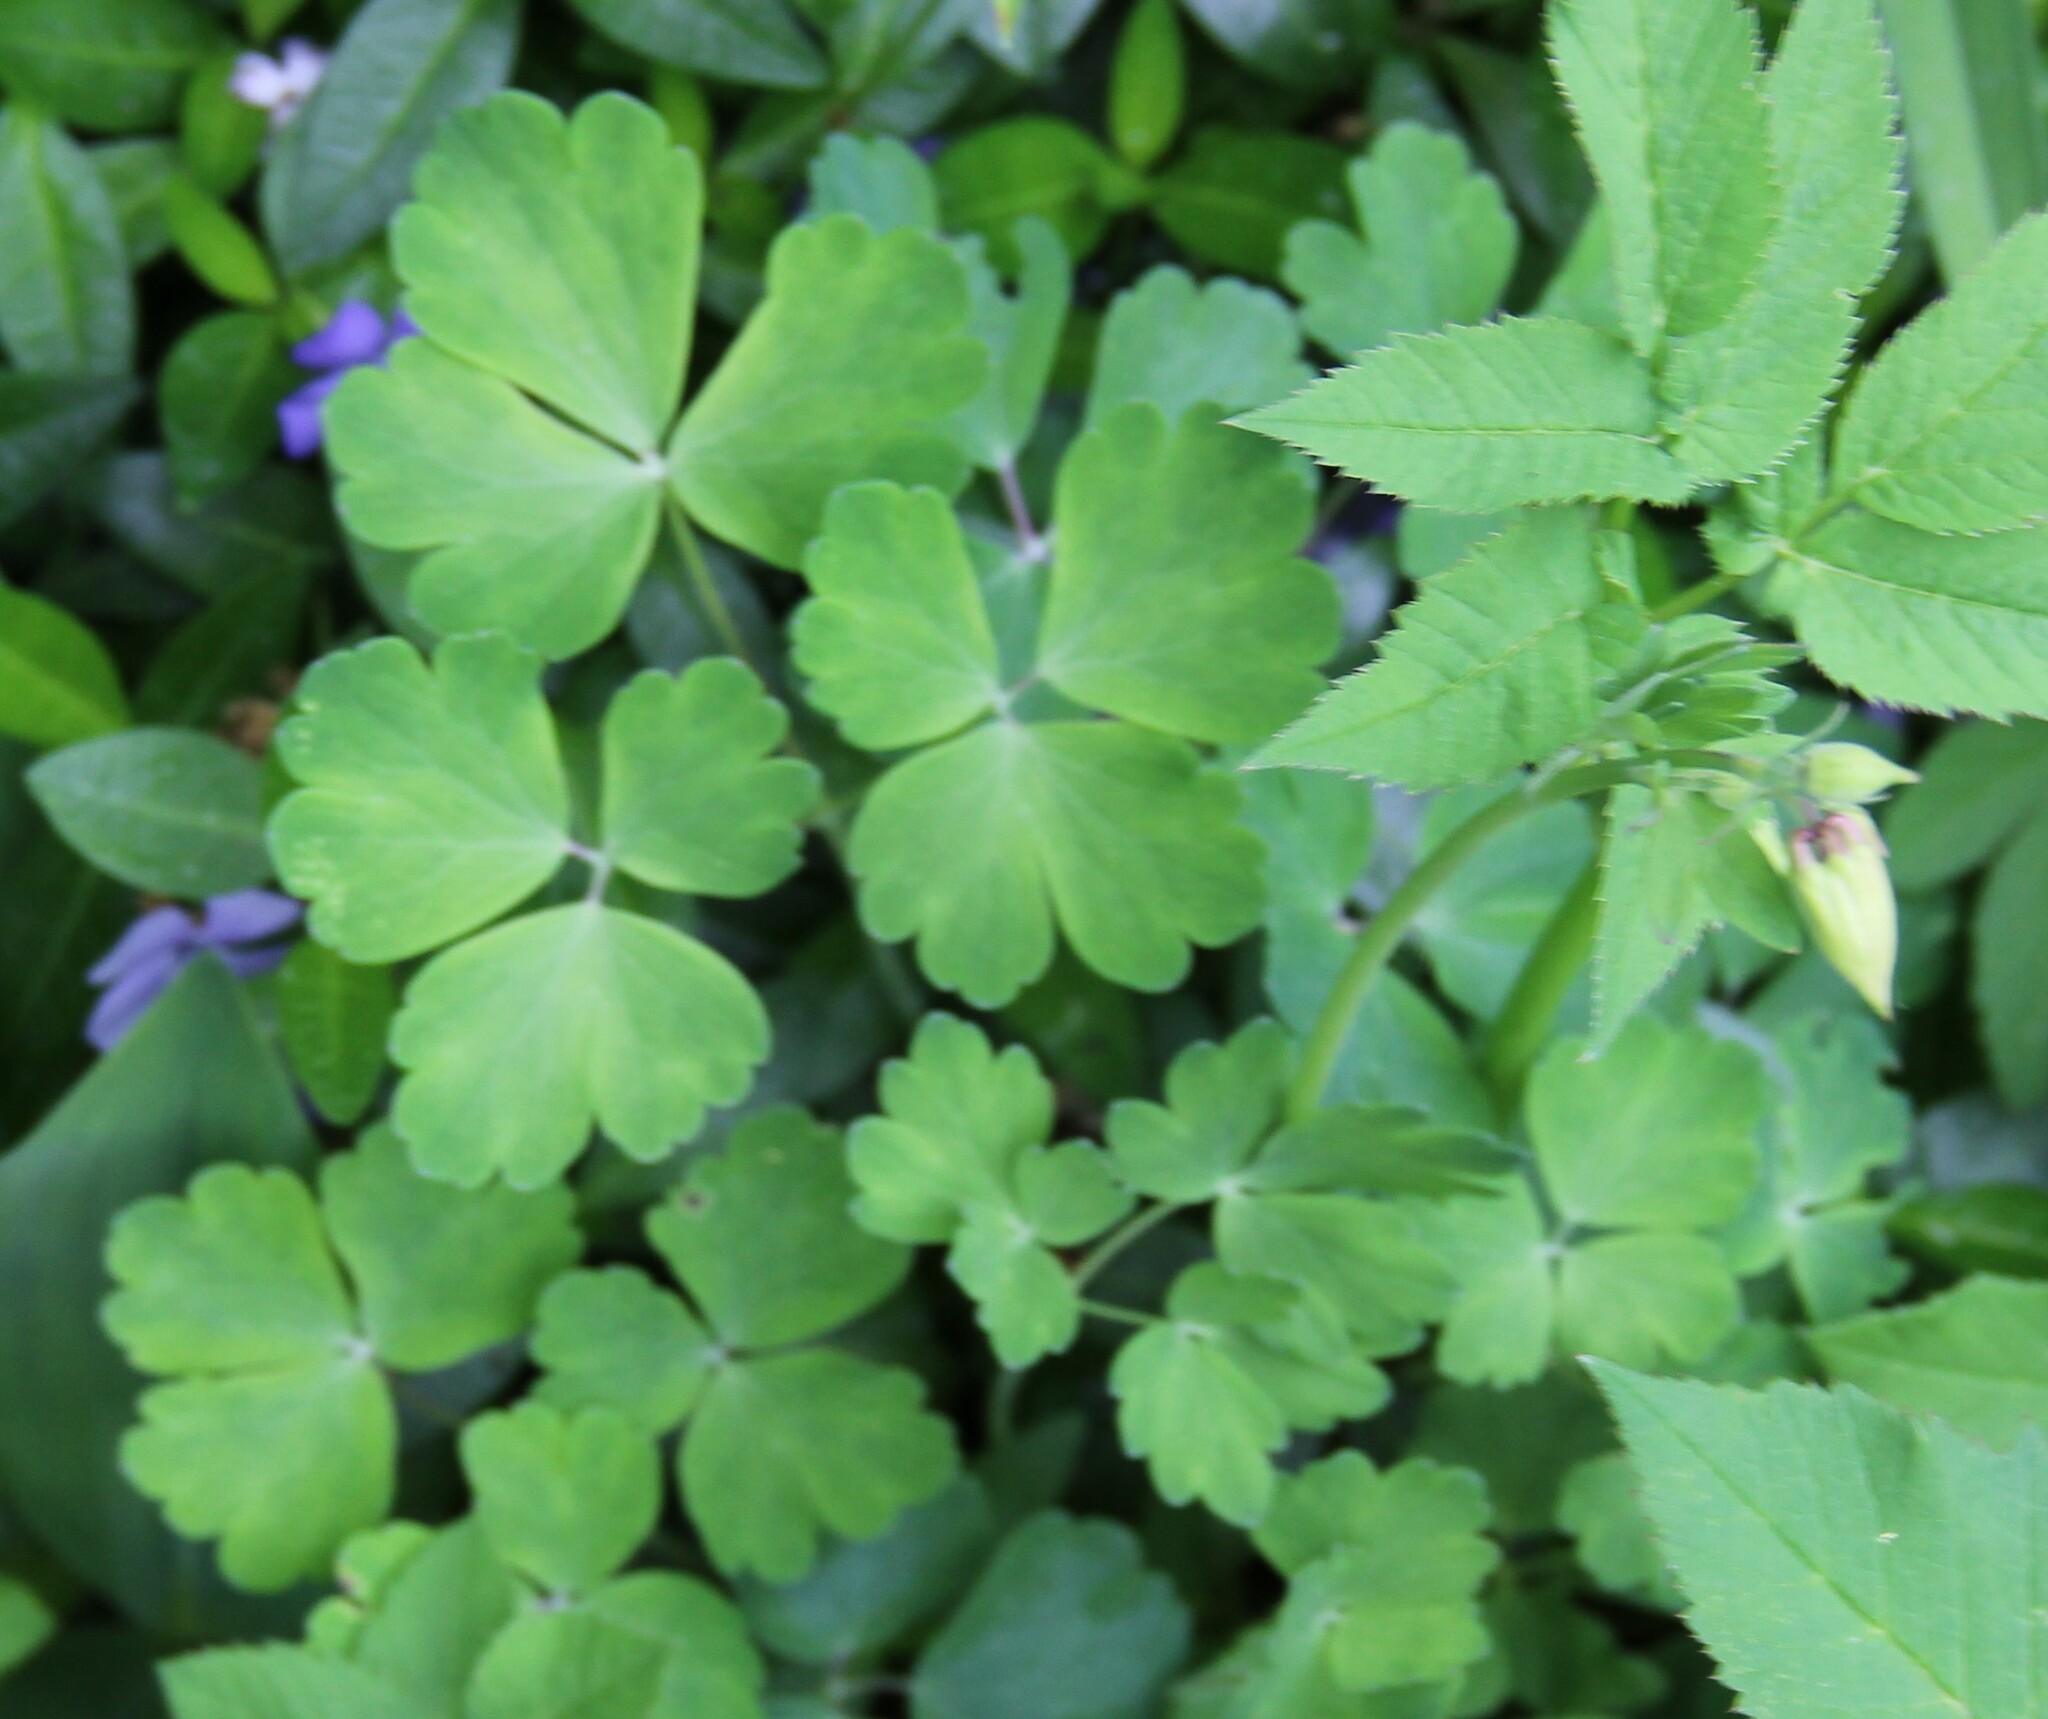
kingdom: Plantae
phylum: Tracheophyta
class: Magnoliopsida
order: Ranunculales
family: Ranunculaceae
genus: Aquilegia
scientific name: Aquilegia vulgaris
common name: Columbine
